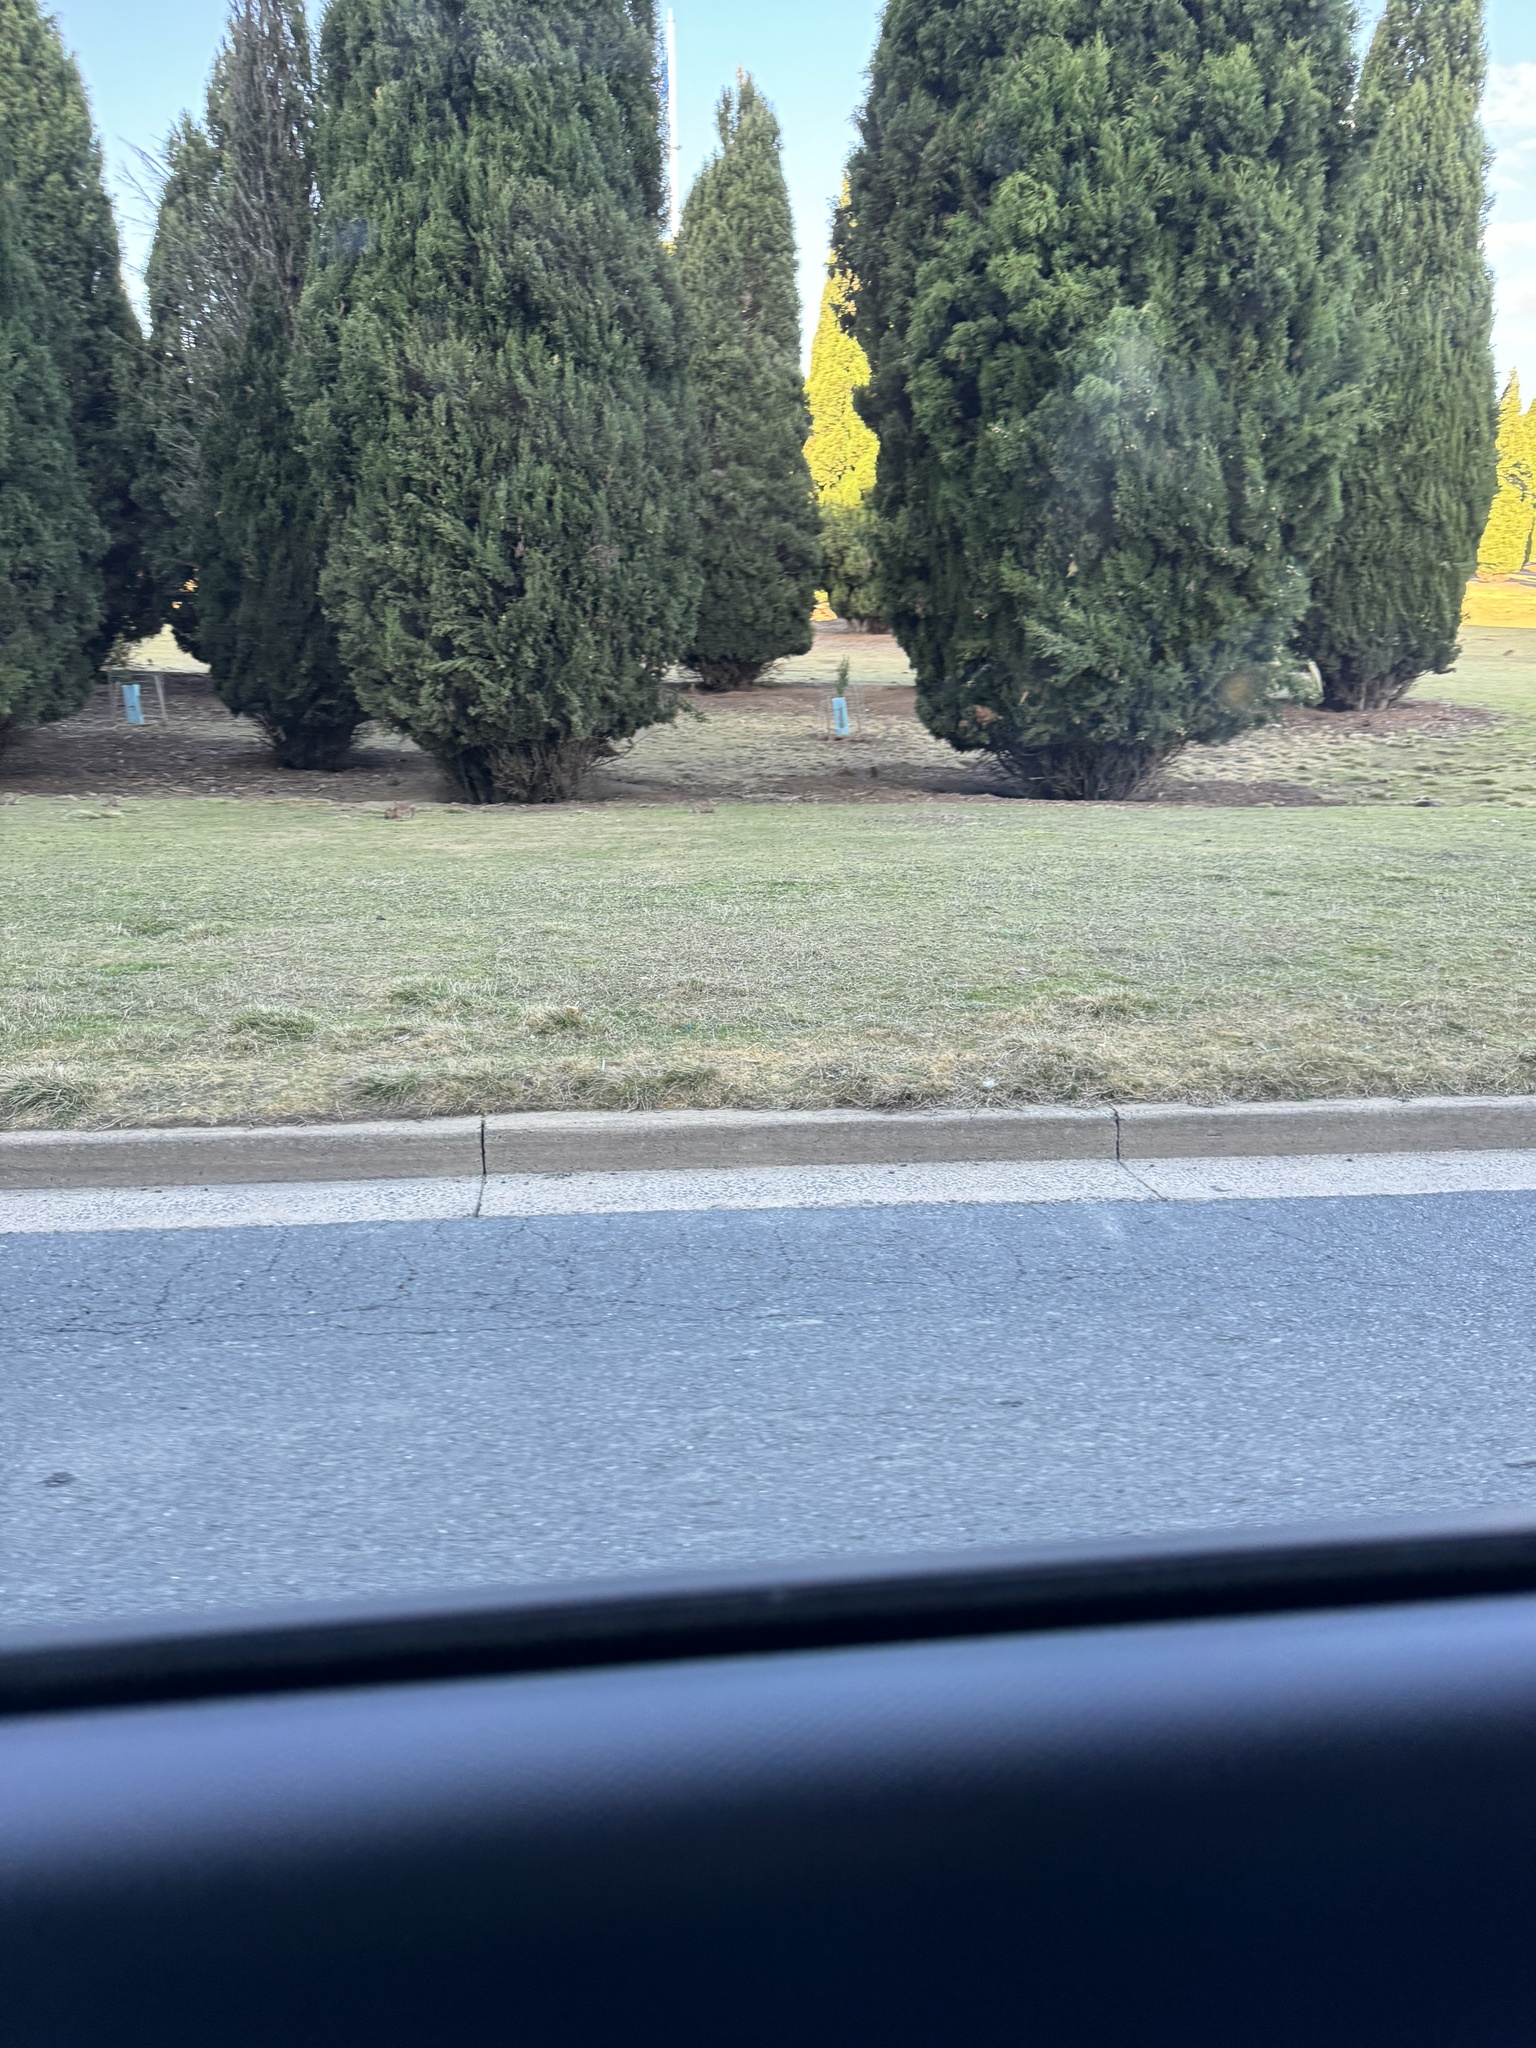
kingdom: Animalia
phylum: Chordata
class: Mammalia
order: Lagomorpha
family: Leporidae
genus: Oryctolagus
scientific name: Oryctolagus cuniculus
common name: European rabbit
